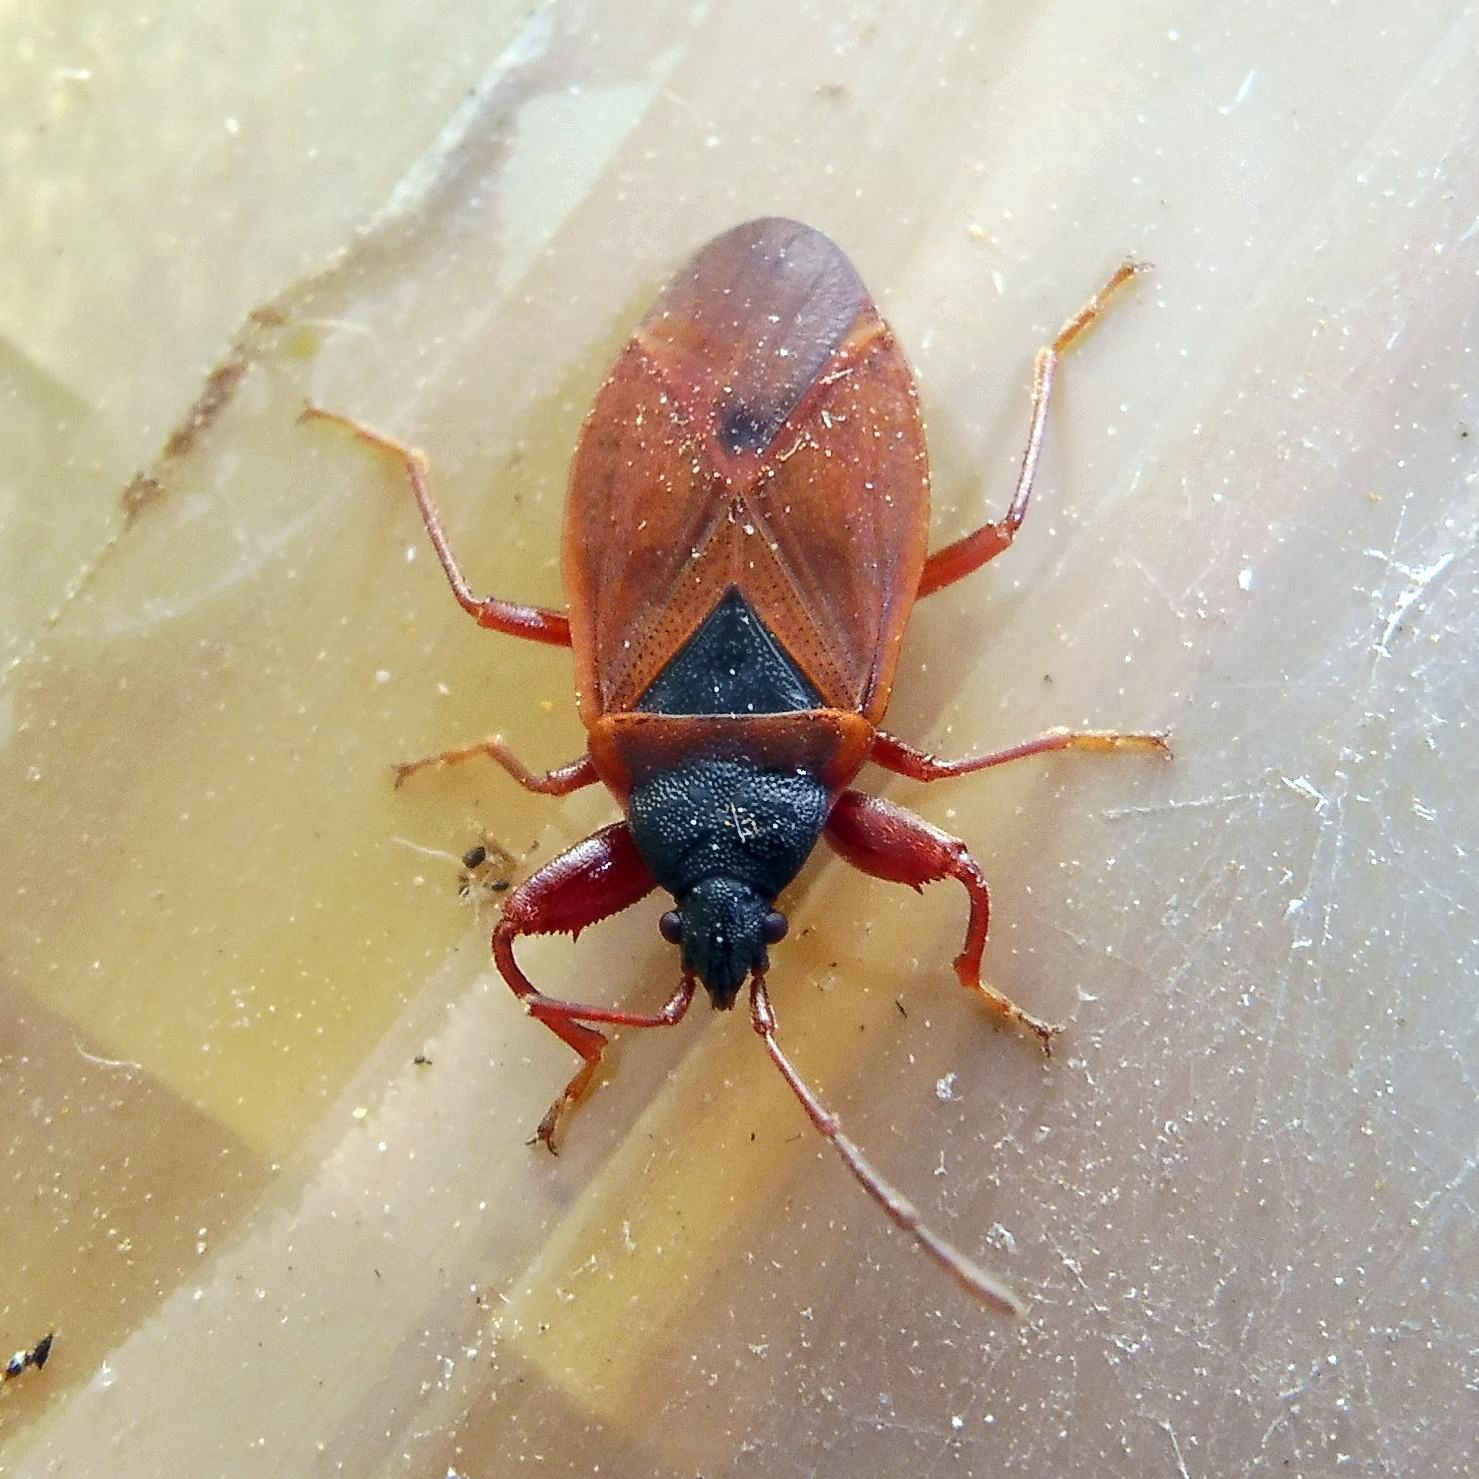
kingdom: Animalia
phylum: Arthropoda
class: Insecta
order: Hemiptera
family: Rhyparochromidae
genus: Gastrodes
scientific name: Gastrodes grossipes
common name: Pine cone bug
